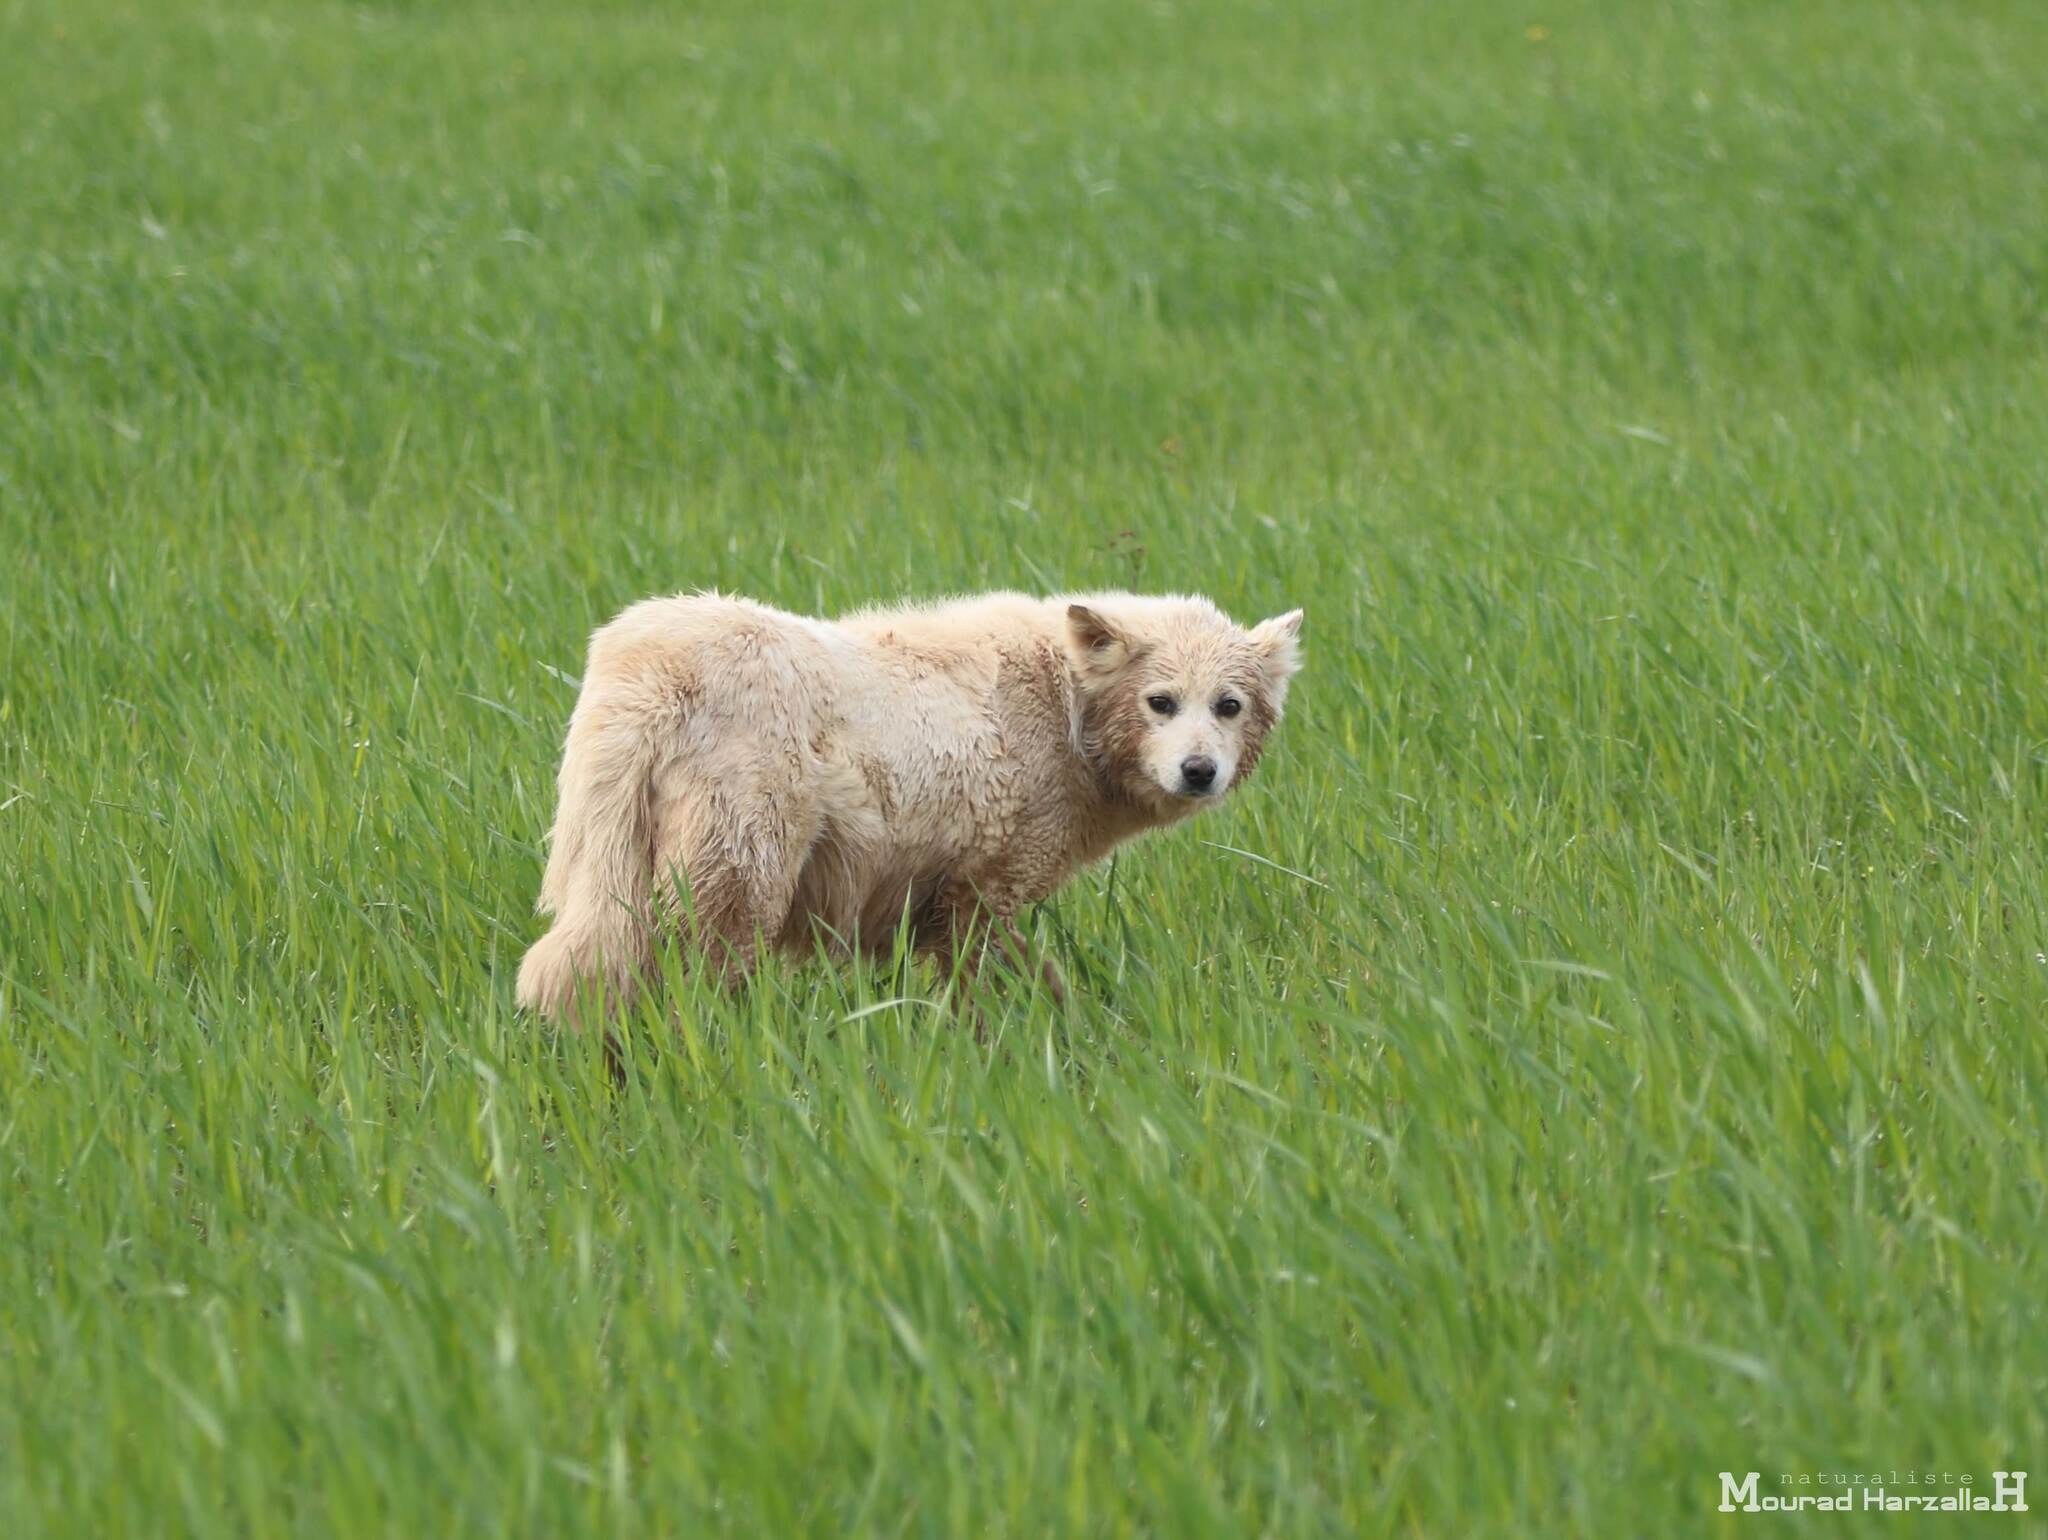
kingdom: Animalia
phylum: Chordata
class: Mammalia
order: Carnivora
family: Canidae
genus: Canis
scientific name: Canis lupus
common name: Gray wolf
